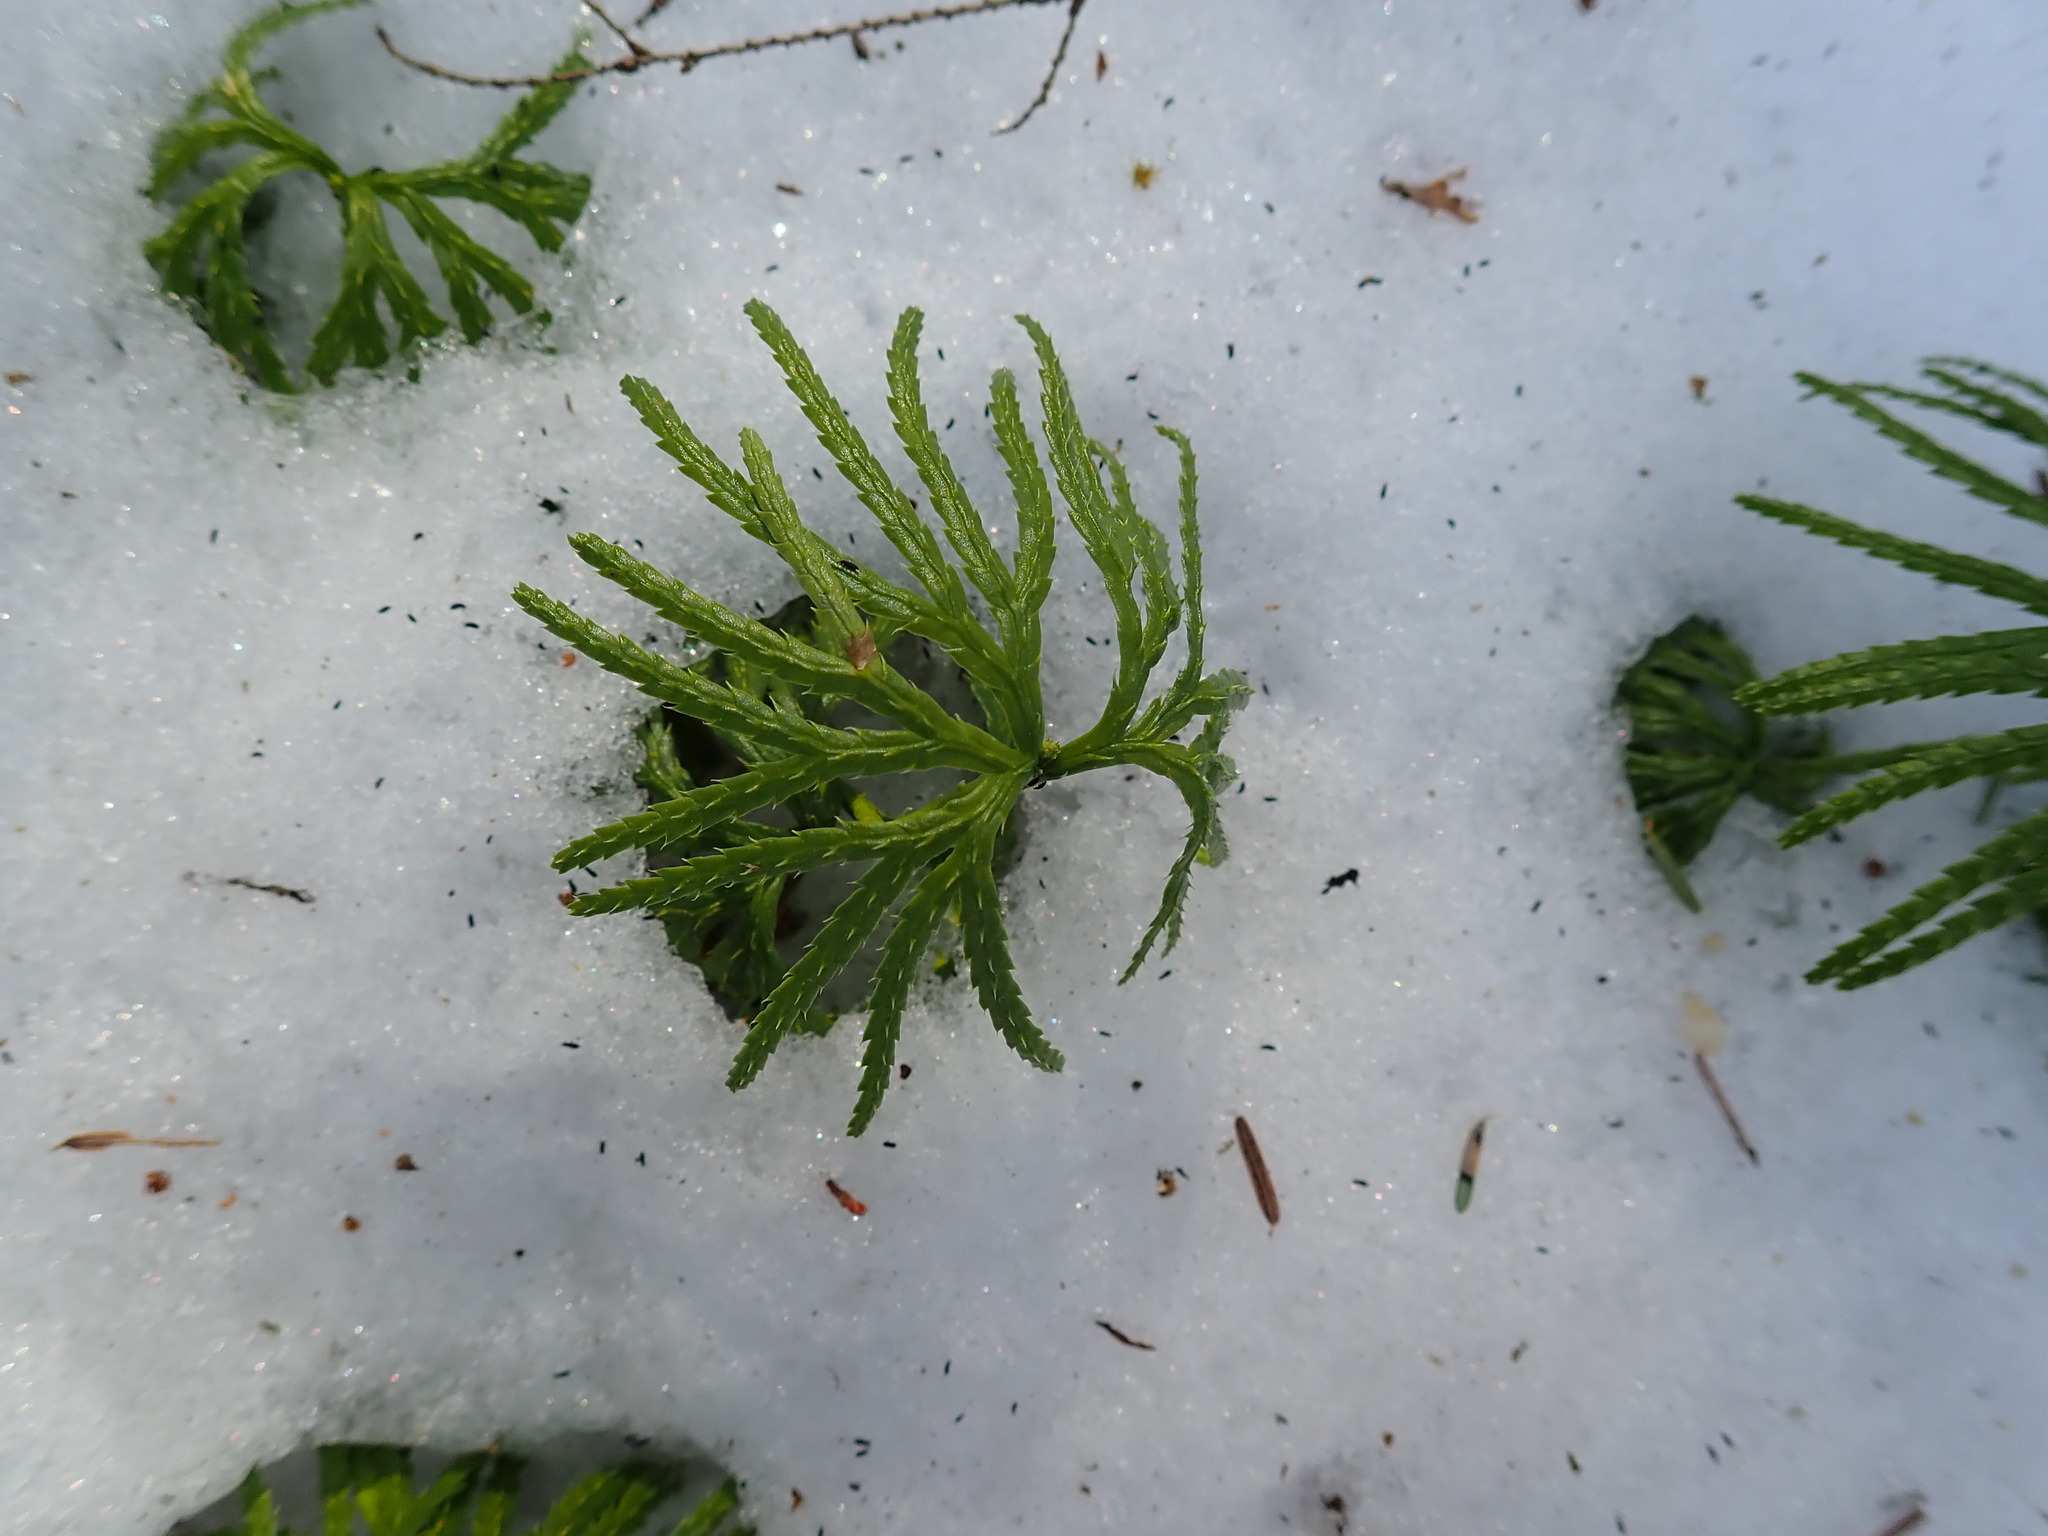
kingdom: Plantae
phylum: Tracheophyta
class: Lycopodiopsida
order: Lycopodiales
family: Lycopodiaceae
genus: Diphasiastrum
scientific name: Diphasiastrum digitatum
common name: Southern running-pine
